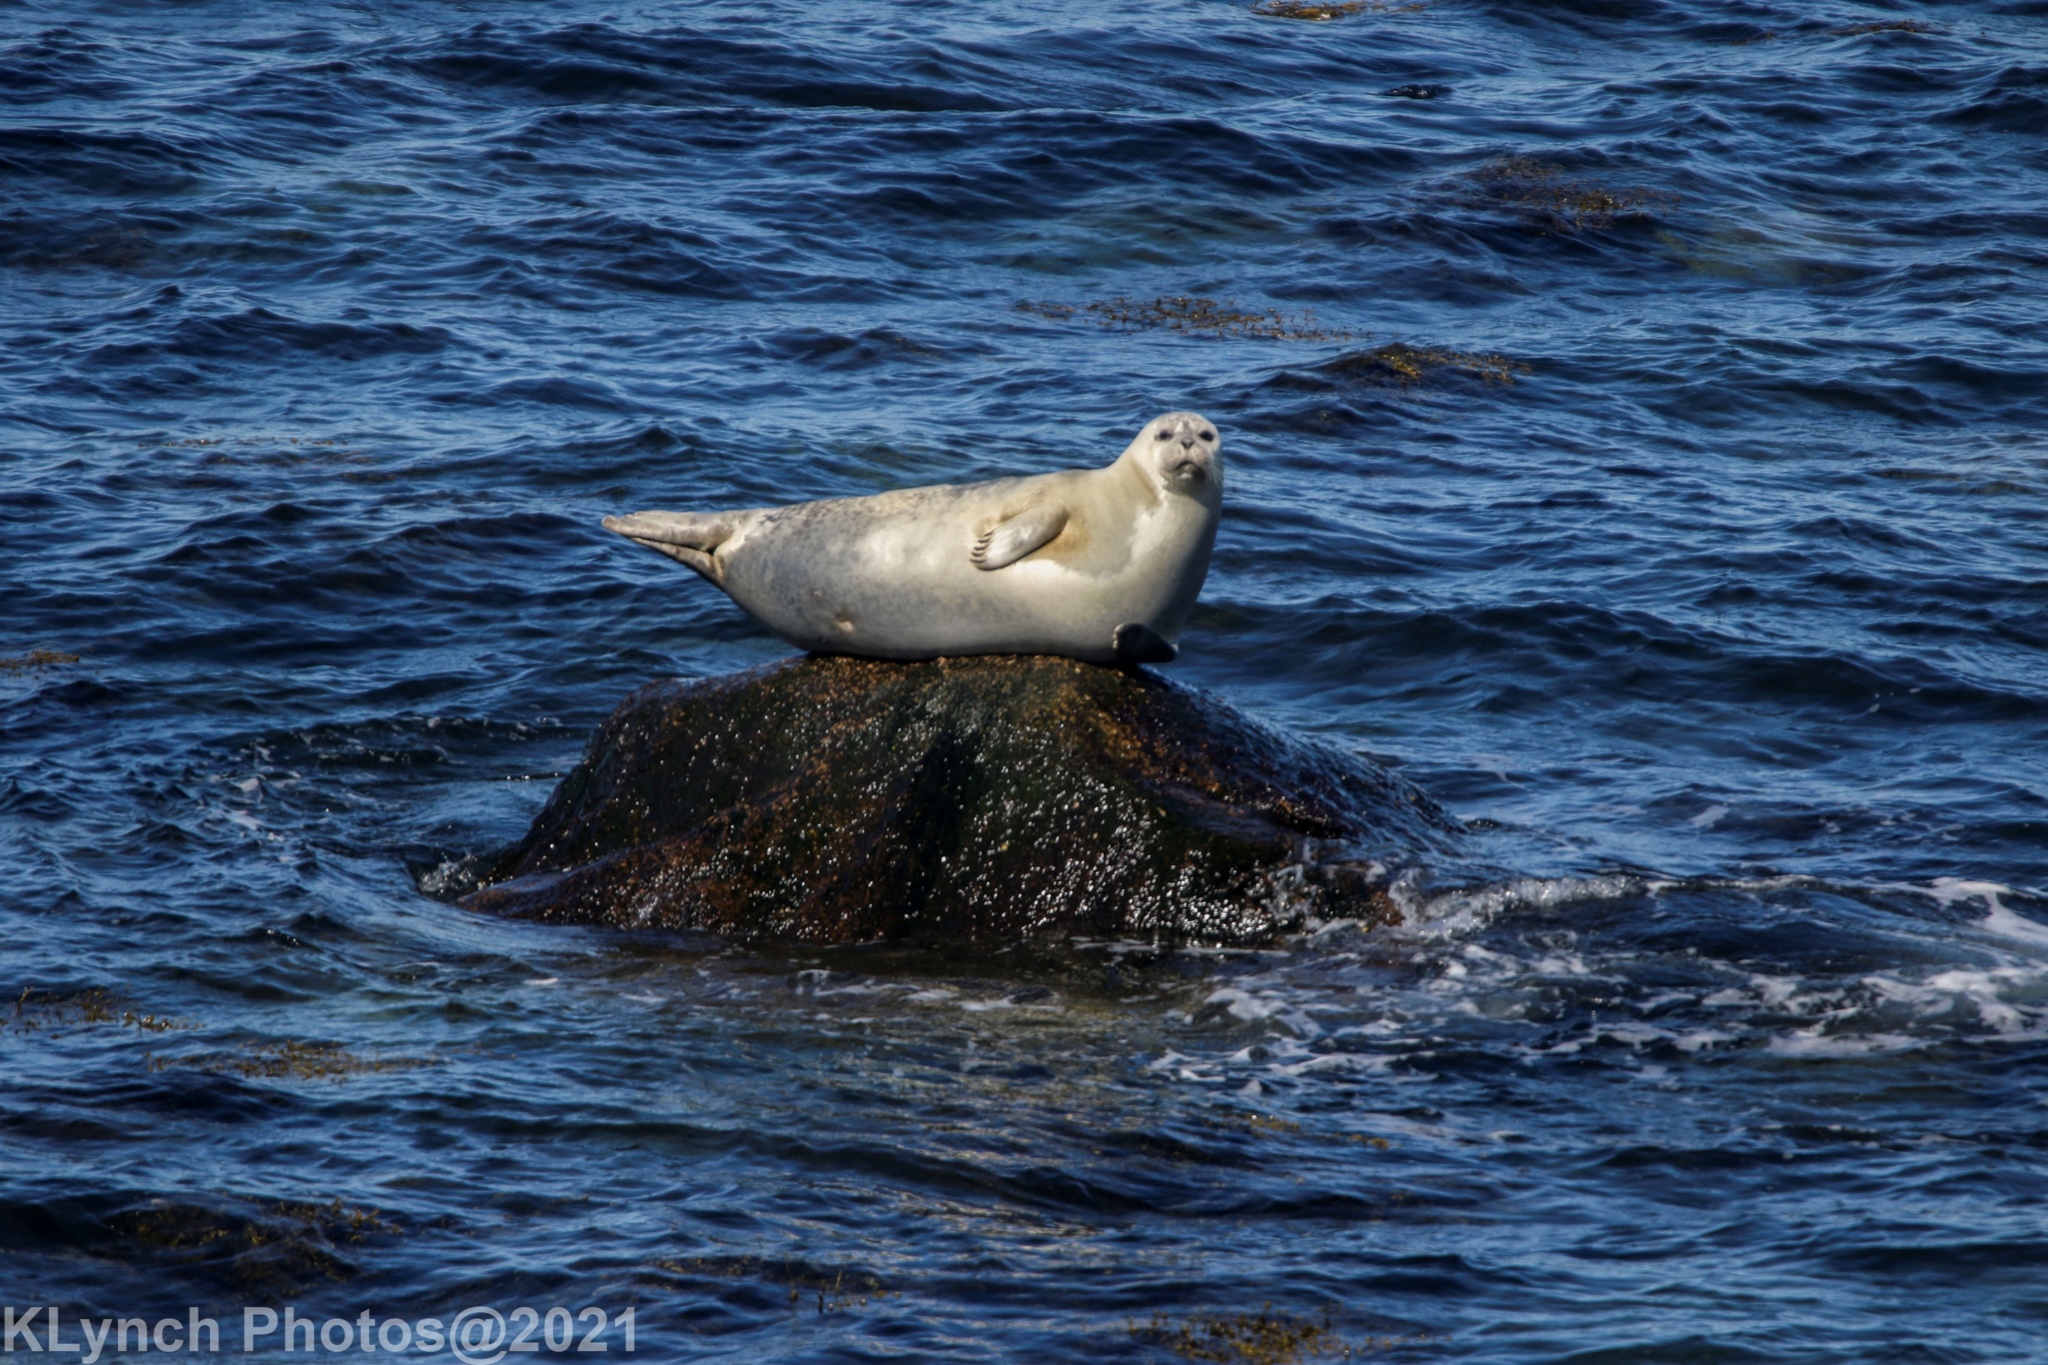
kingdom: Animalia
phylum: Chordata
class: Mammalia
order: Carnivora
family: Phocidae
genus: Phoca
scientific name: Phoca vitulina
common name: Harbor seal
